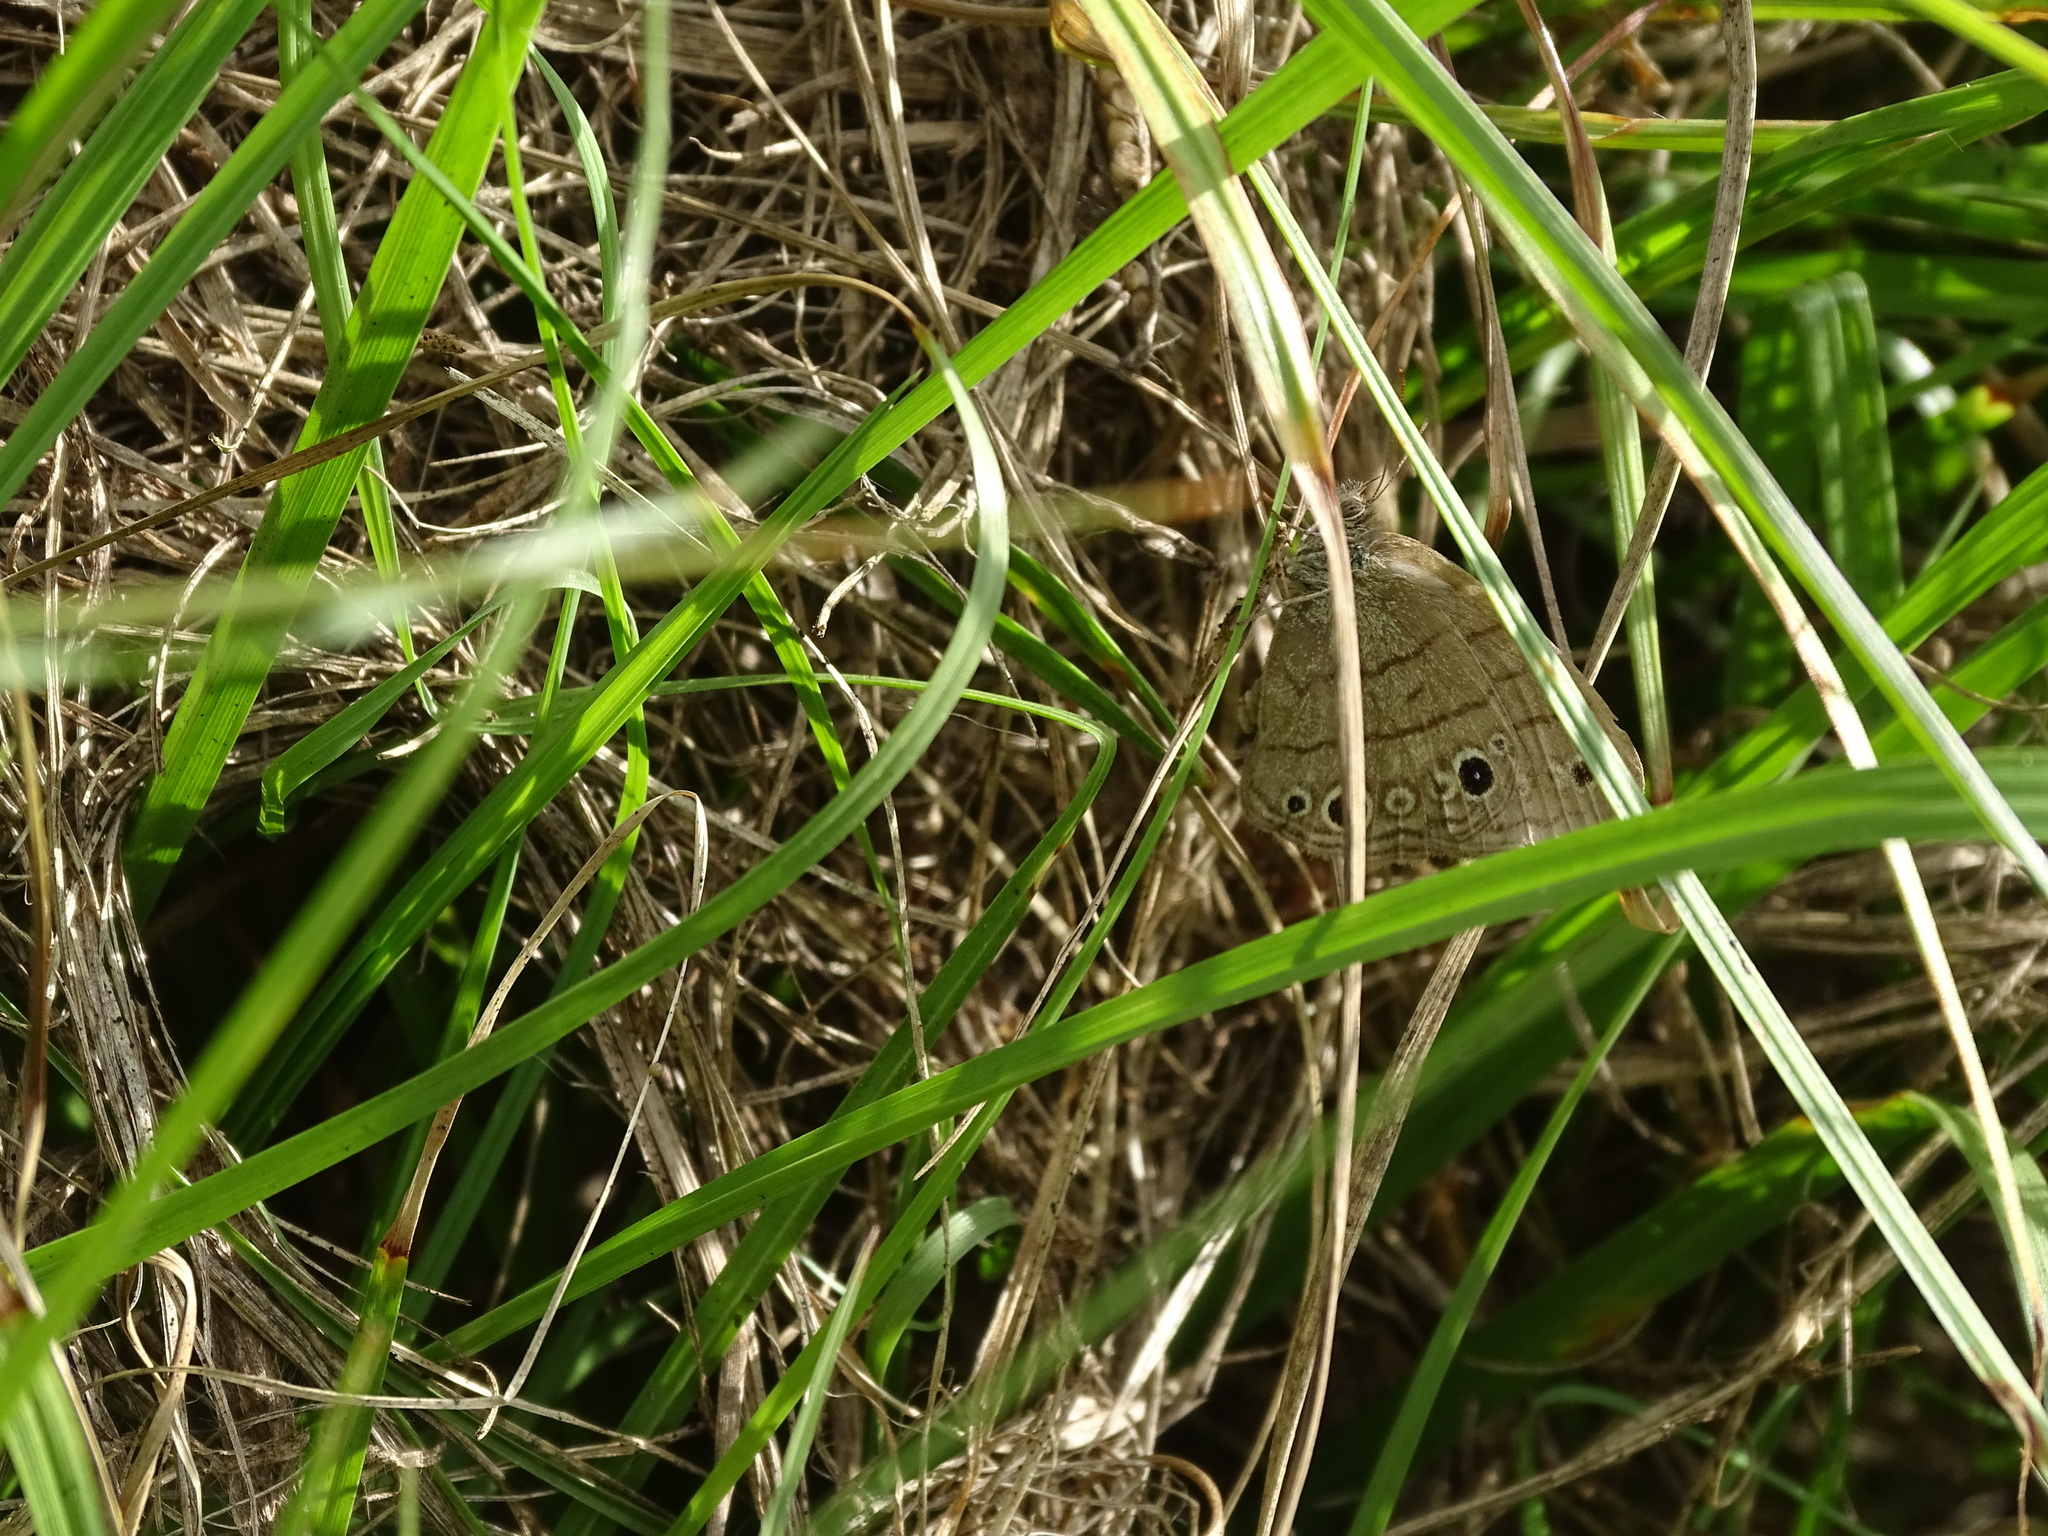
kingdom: Animalia
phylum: Arthropoda
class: Insecta
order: Lepidoptera
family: Nymphalidae
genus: Hermeuptychia
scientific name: Hermeuptychia intricata
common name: Intricate satyr
